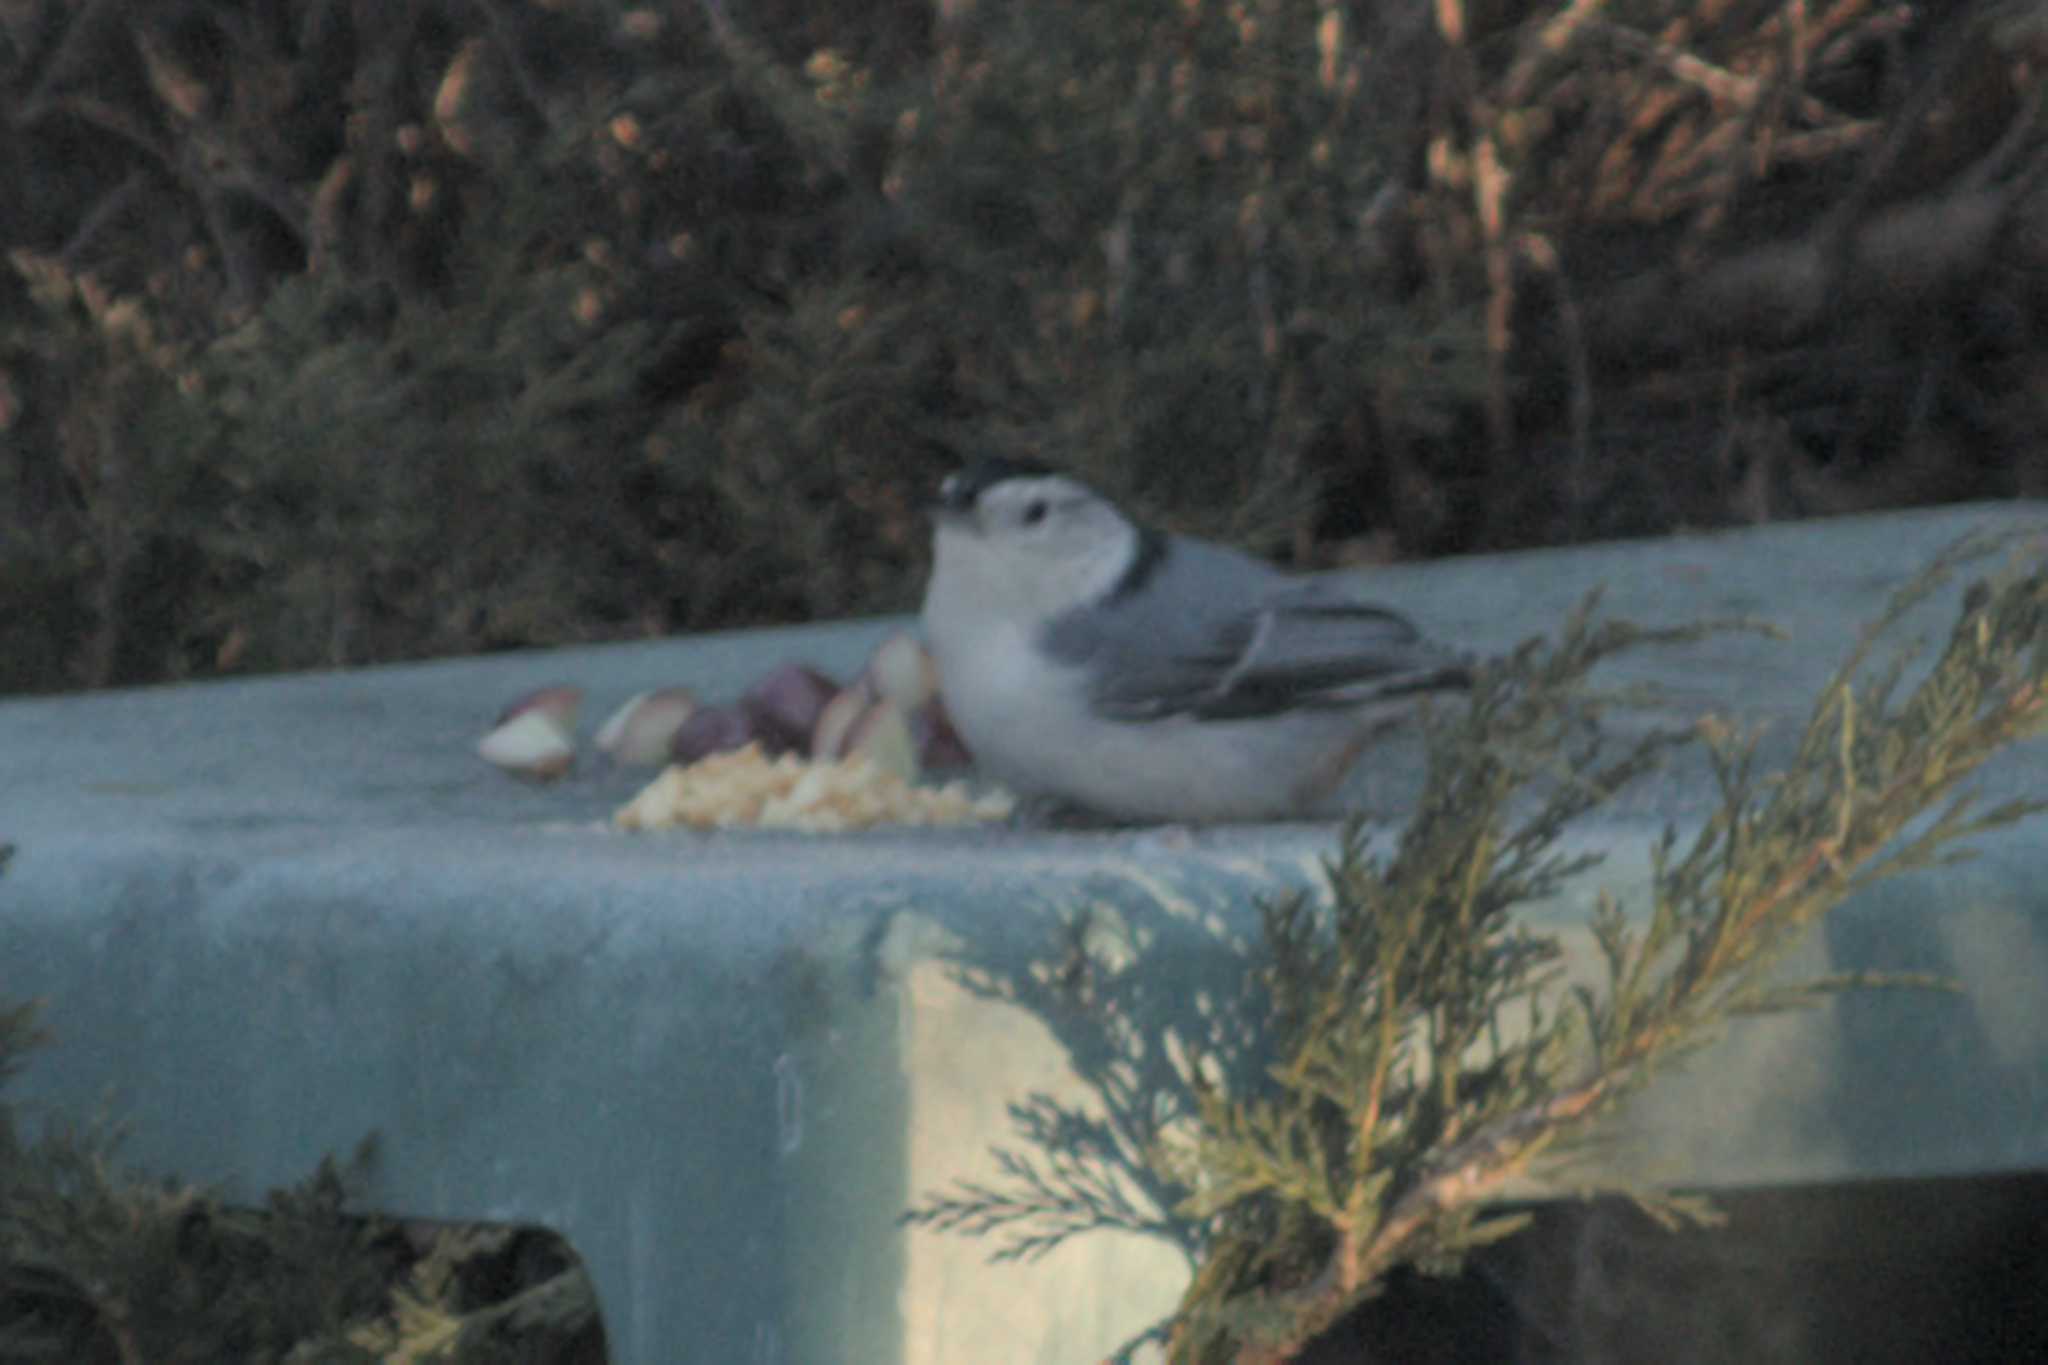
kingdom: Animalia
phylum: Chordata
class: Aves
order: Passeriformes
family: Sittidae
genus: Sitta
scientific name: Sitta carolinensis
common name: White-breasted nuthatch
